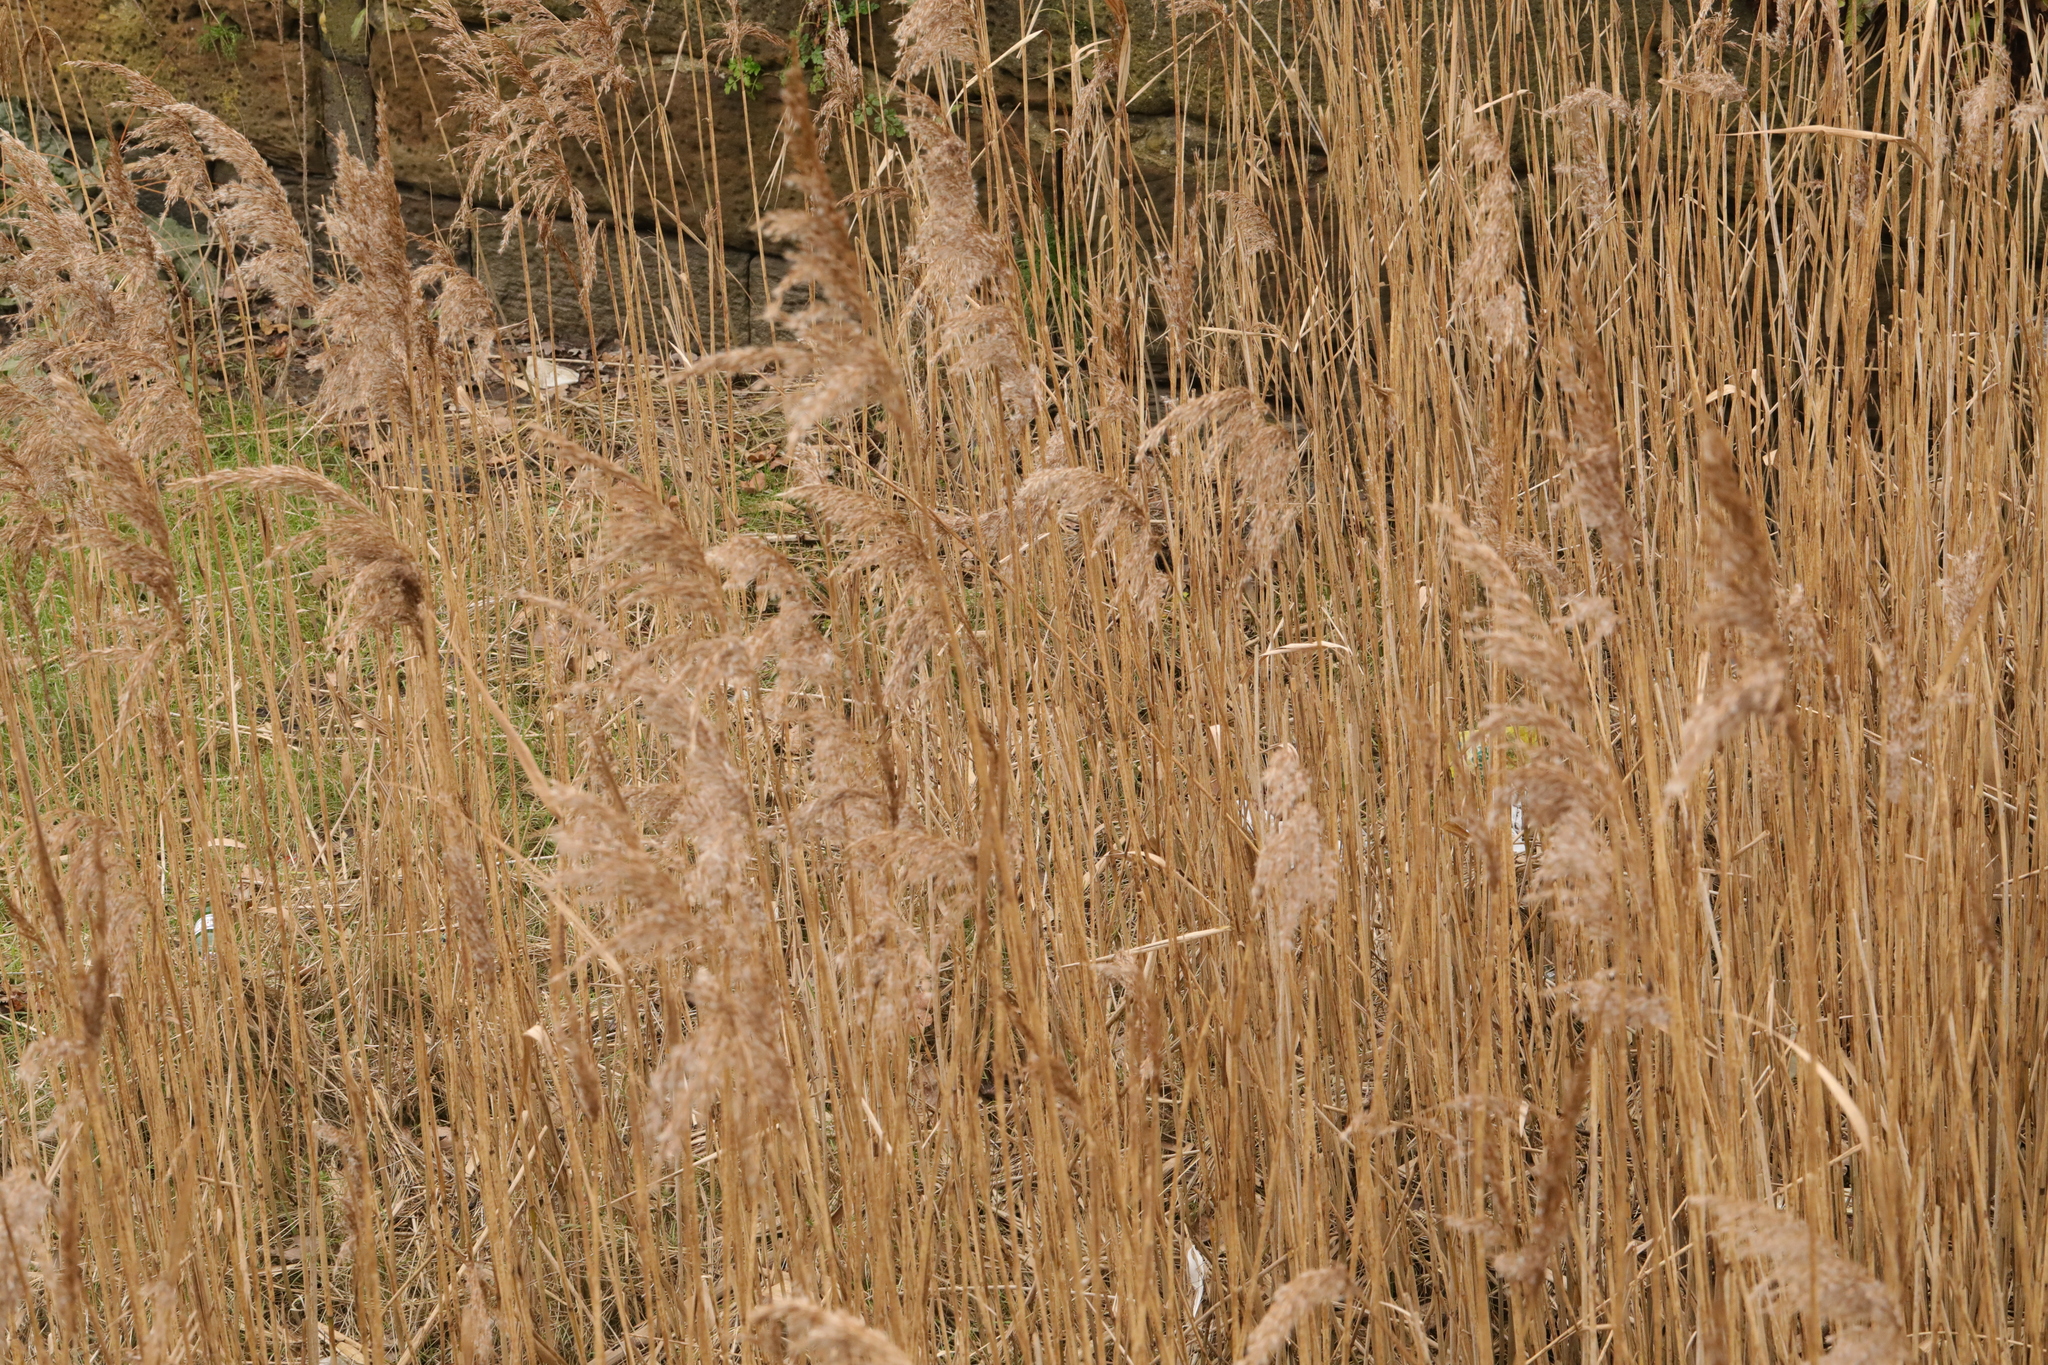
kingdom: Plantae
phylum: Tracheophyta
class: Liliopsida
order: Poales
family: Poaceae
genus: Phragmites
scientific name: Phragmites australis
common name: Common reed
